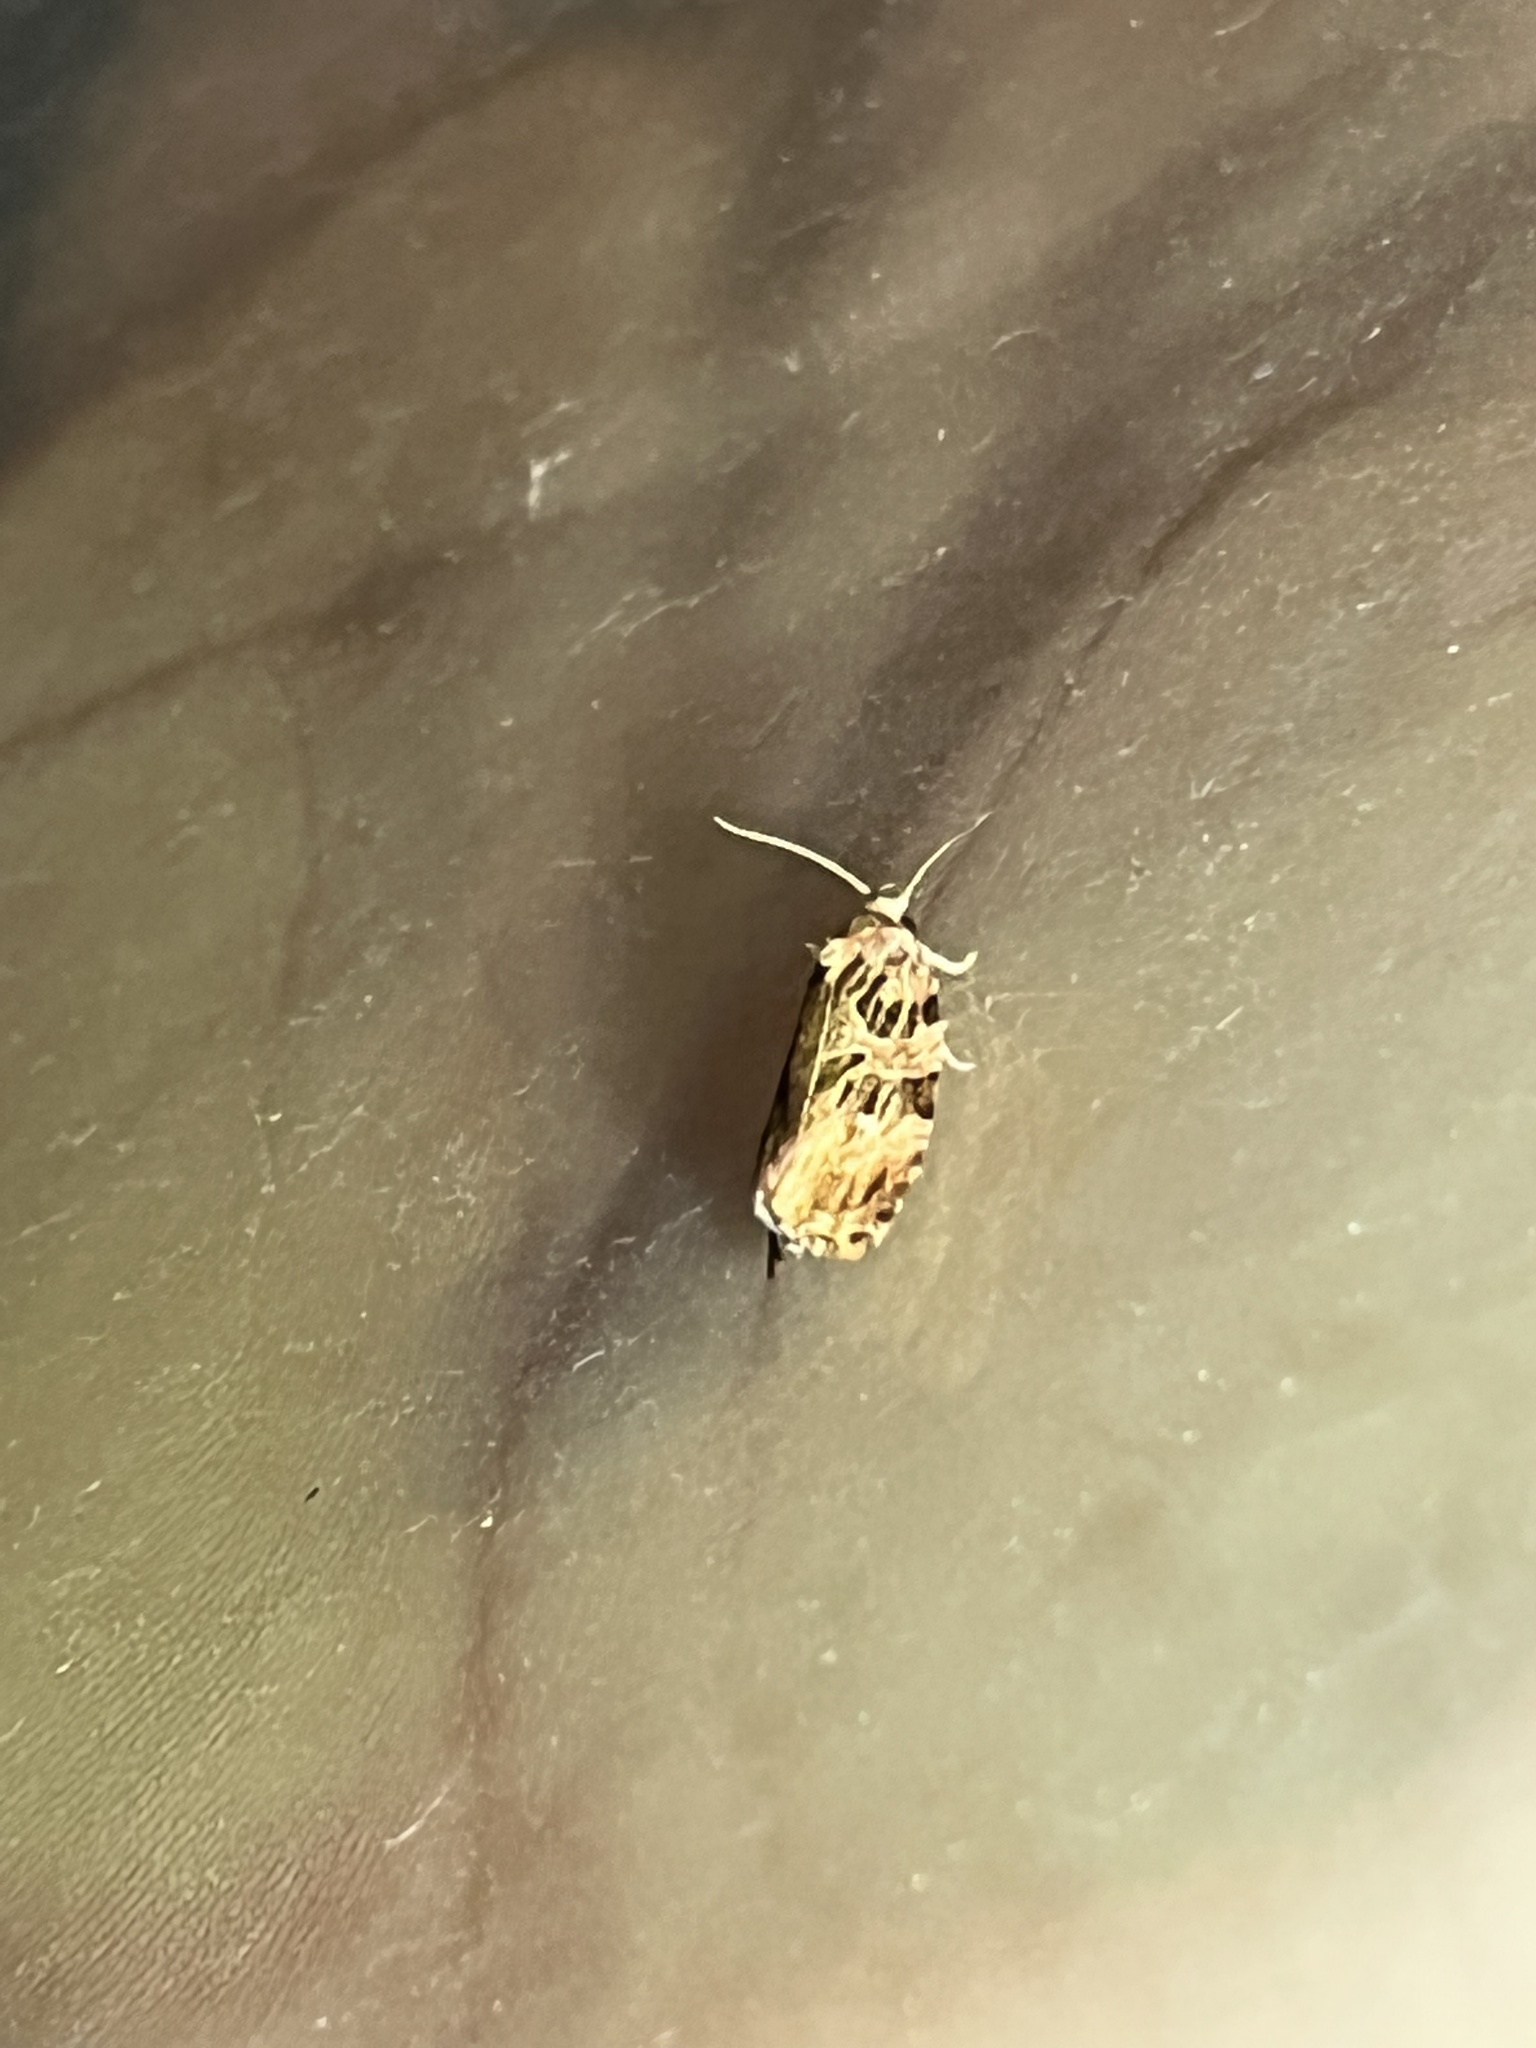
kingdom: Animalia
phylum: Arthropoda
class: Insecta
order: Lepidoptera
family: Tortricidae
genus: Phaecasiophora
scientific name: Phaecasiophora niveiguttana
